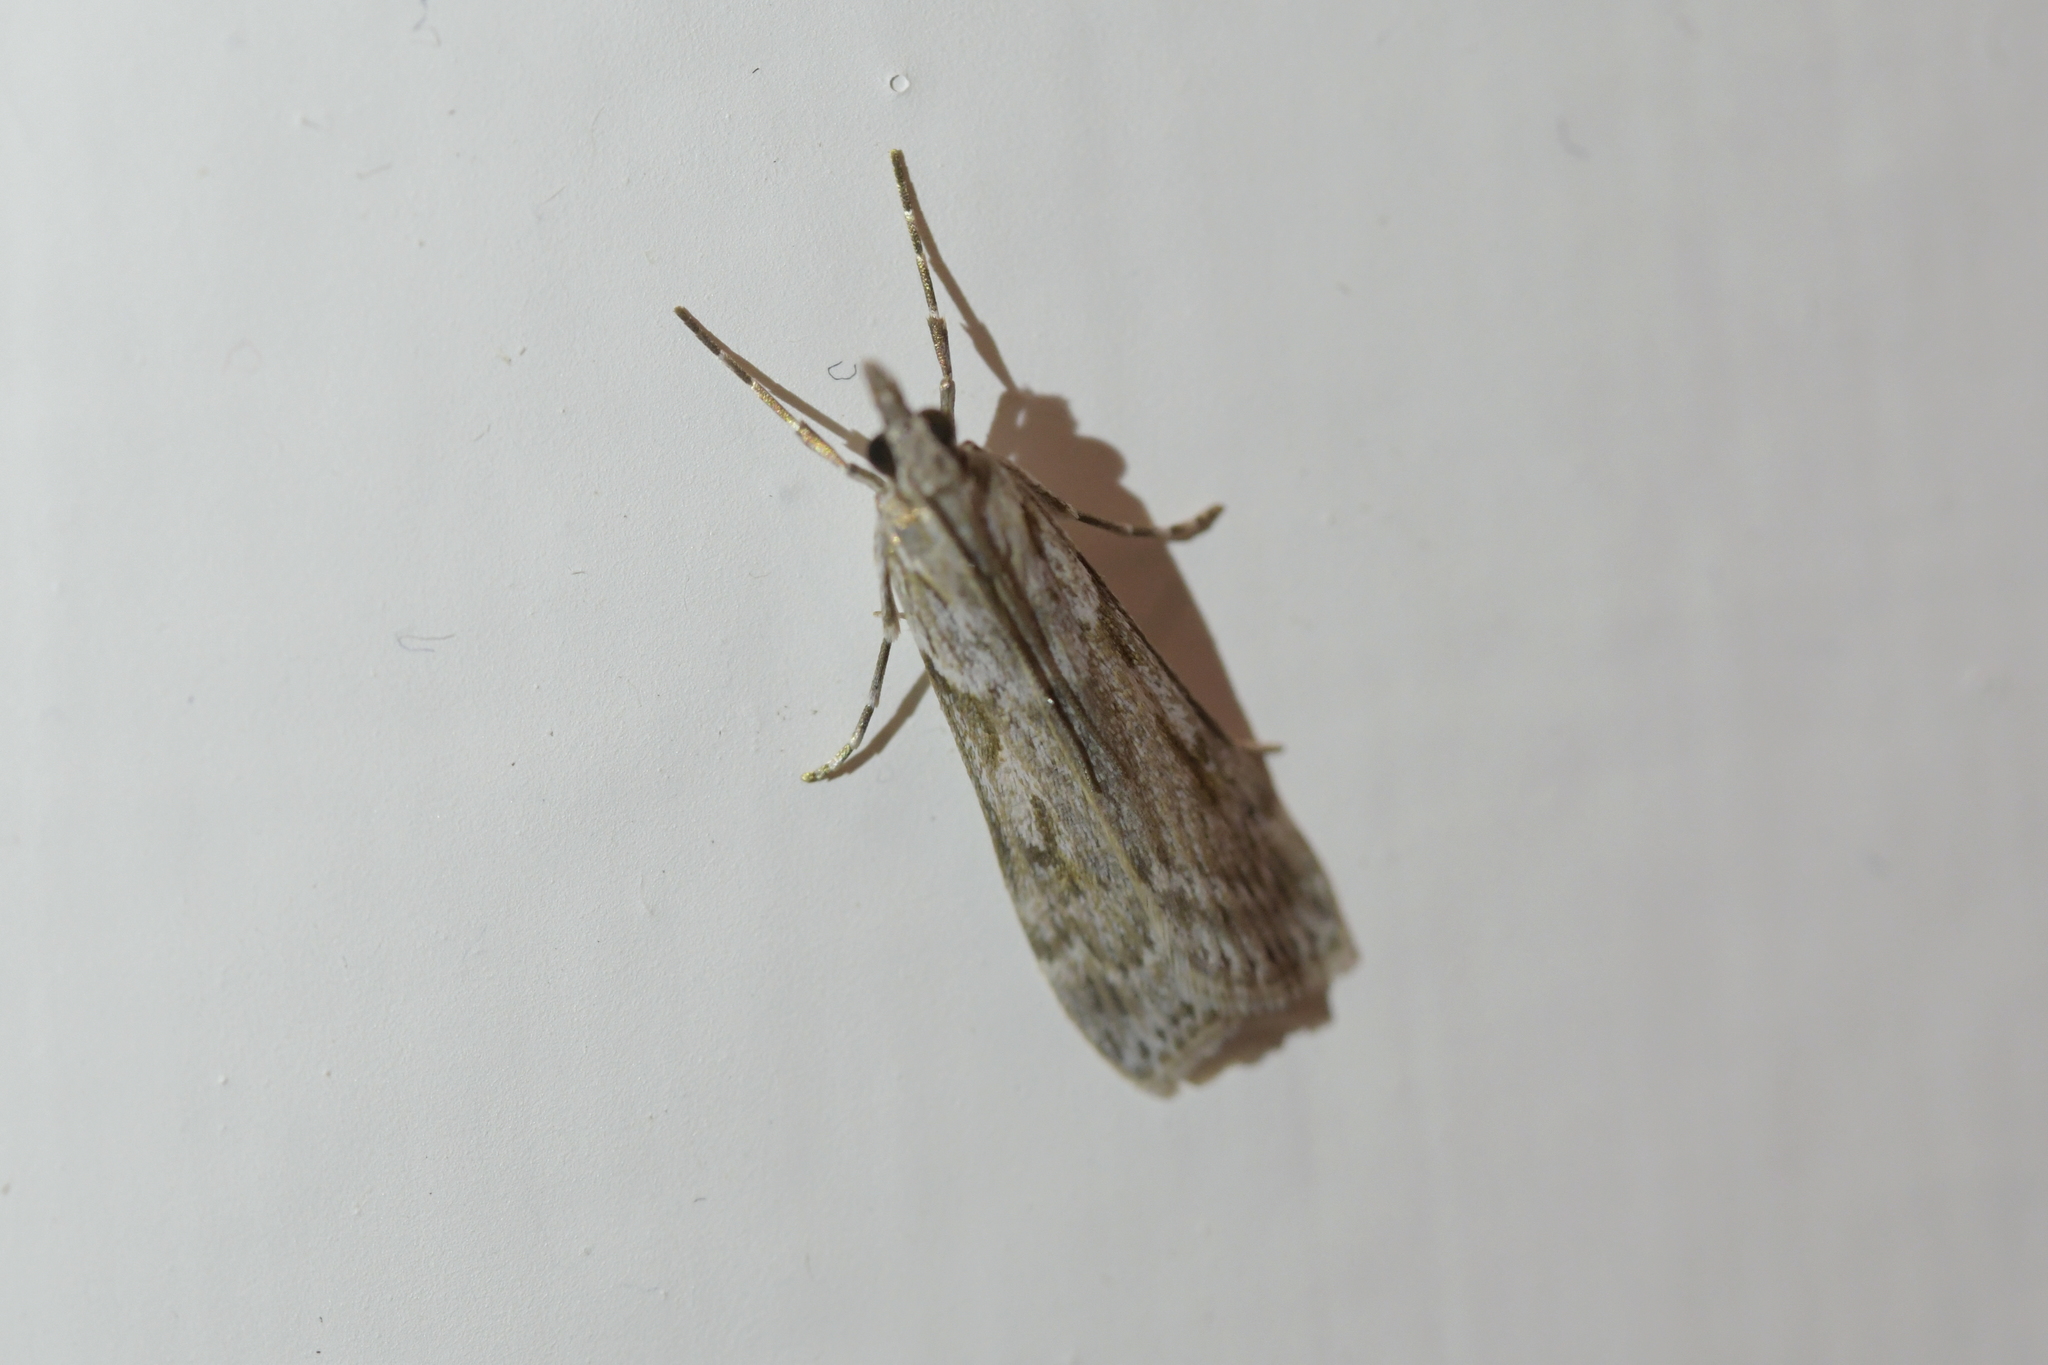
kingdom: Animalia
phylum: Arthropoda
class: Insecta
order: Lepidoptera
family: Crambidae
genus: Scoparia
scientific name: Scoparia halopis
